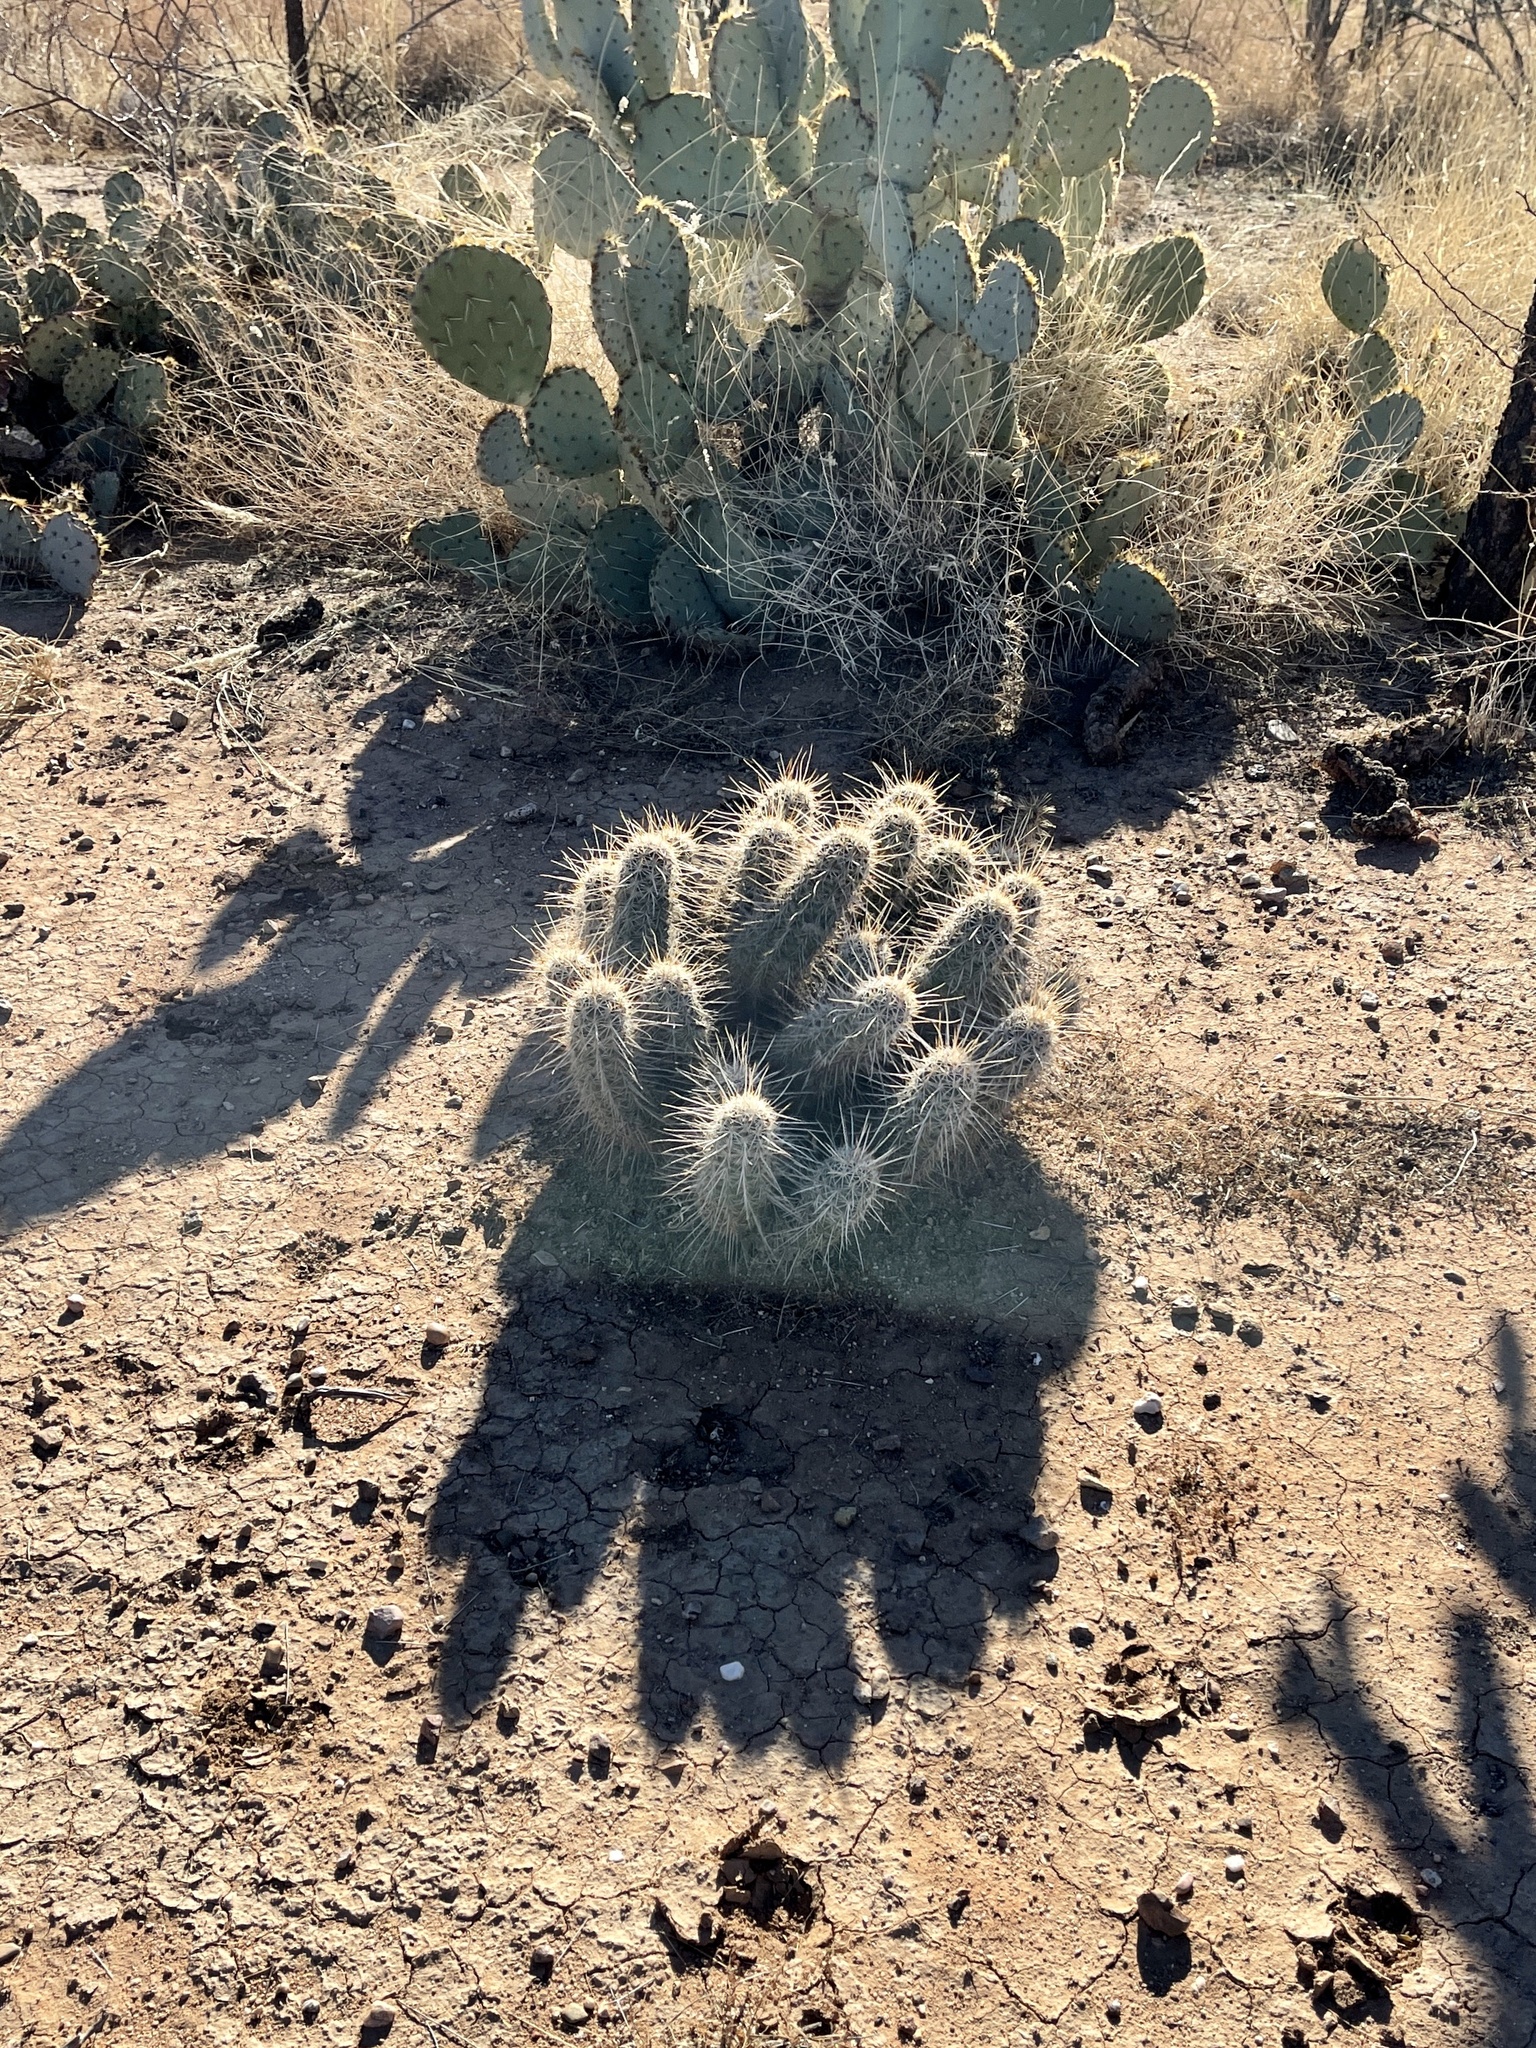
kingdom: Plantae
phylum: Tracheophyta
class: Magnoliopsida
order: Caryophyllales
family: Cactaceae
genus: Echinocereus
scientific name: Echinocereus fasciculatus
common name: Bundle hedgehog
